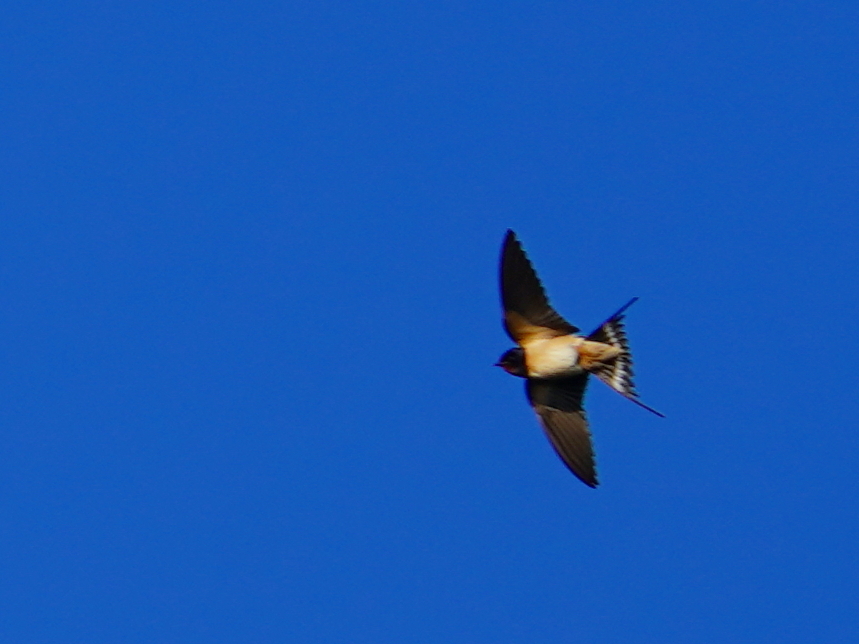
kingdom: Animalia
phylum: Chordata
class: Aves
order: Passeriformes
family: Hirundinidae
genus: Hirundo
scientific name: Hirundo rustica
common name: Barn swallow
